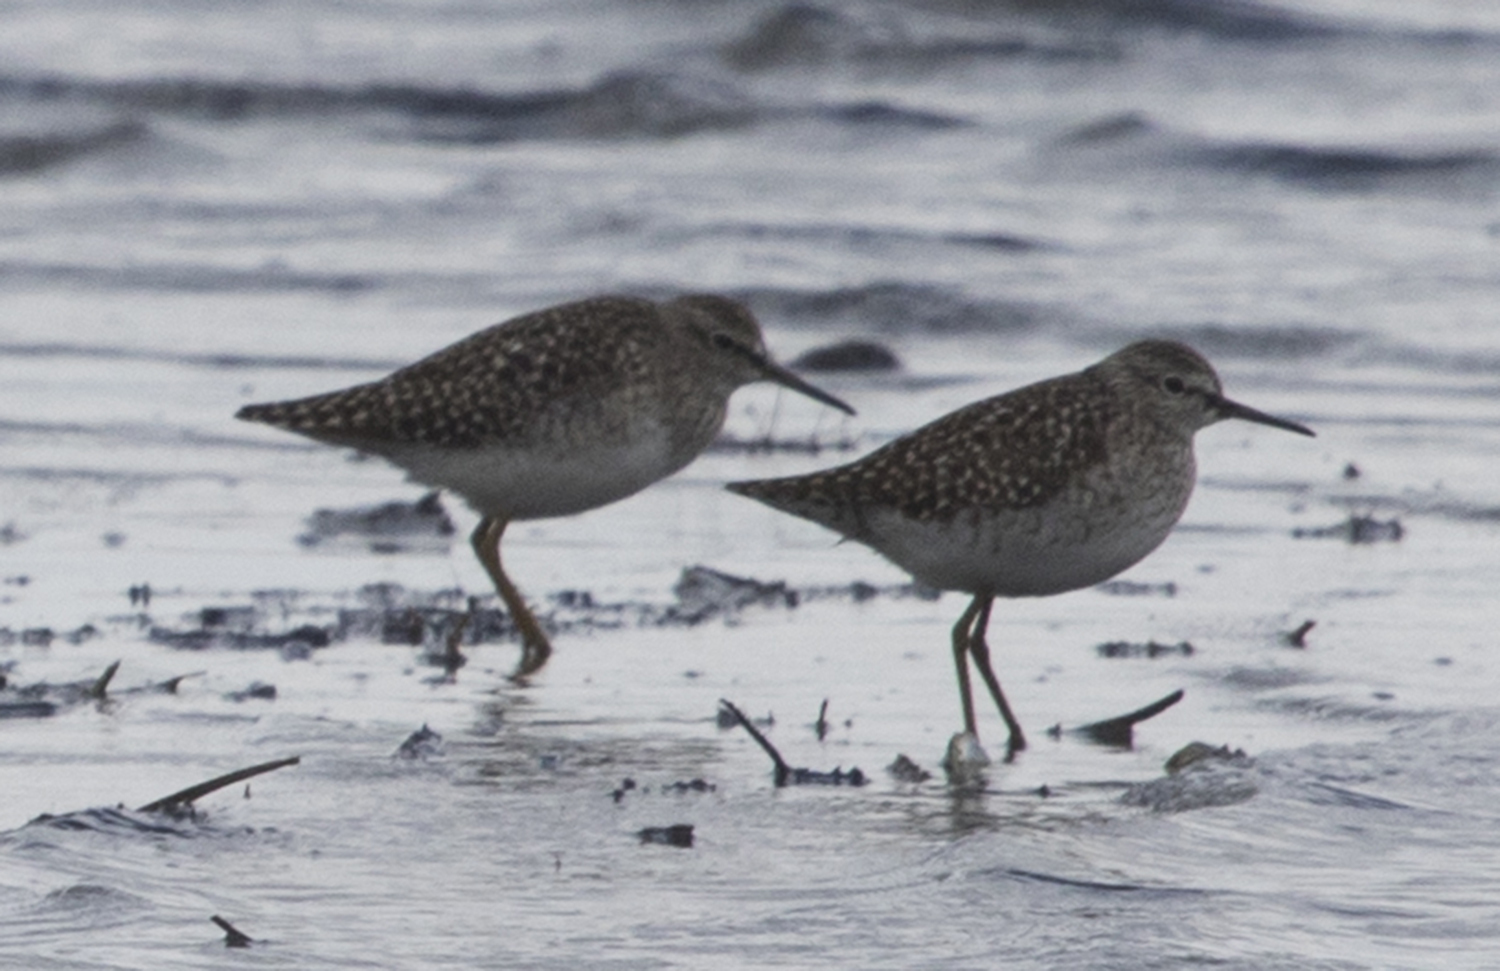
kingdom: Animalia
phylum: Chordata
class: Aves
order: Charadriiformes
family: Scolopacidae
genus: Tringa
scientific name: Tringa glareola
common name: Wood sandpiper
